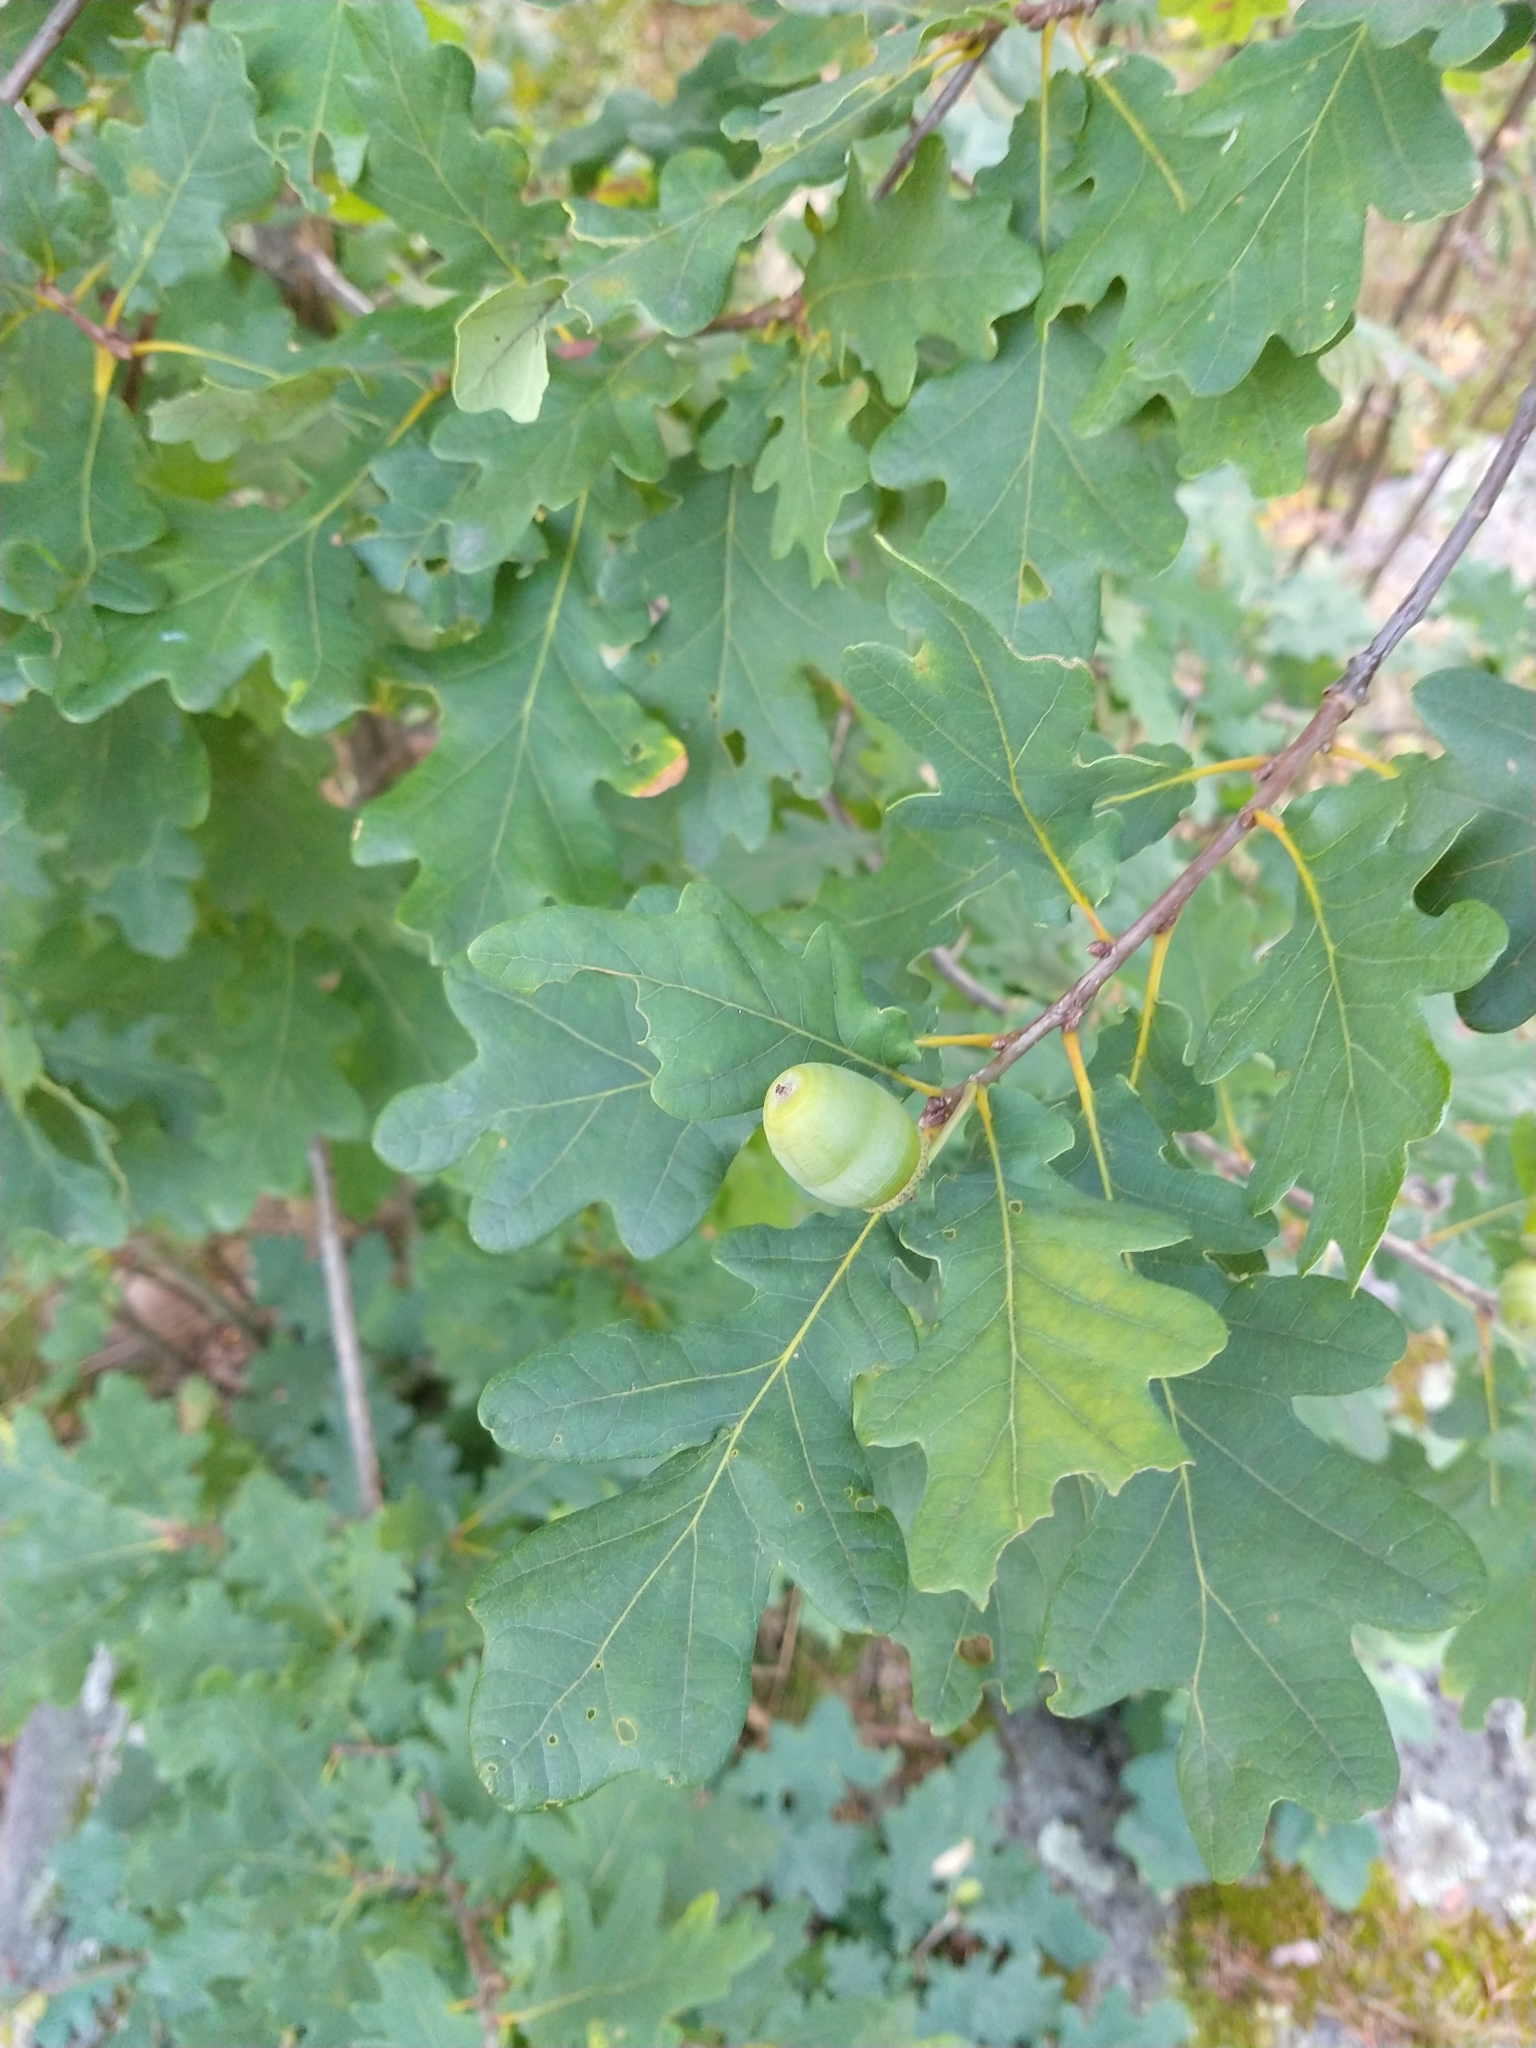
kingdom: Plantae
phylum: Tracheophyta
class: Magnoliopsida
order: Fagales
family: Fagaceae
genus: Quercus
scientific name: Quercus robur
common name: Pedunculate oak
